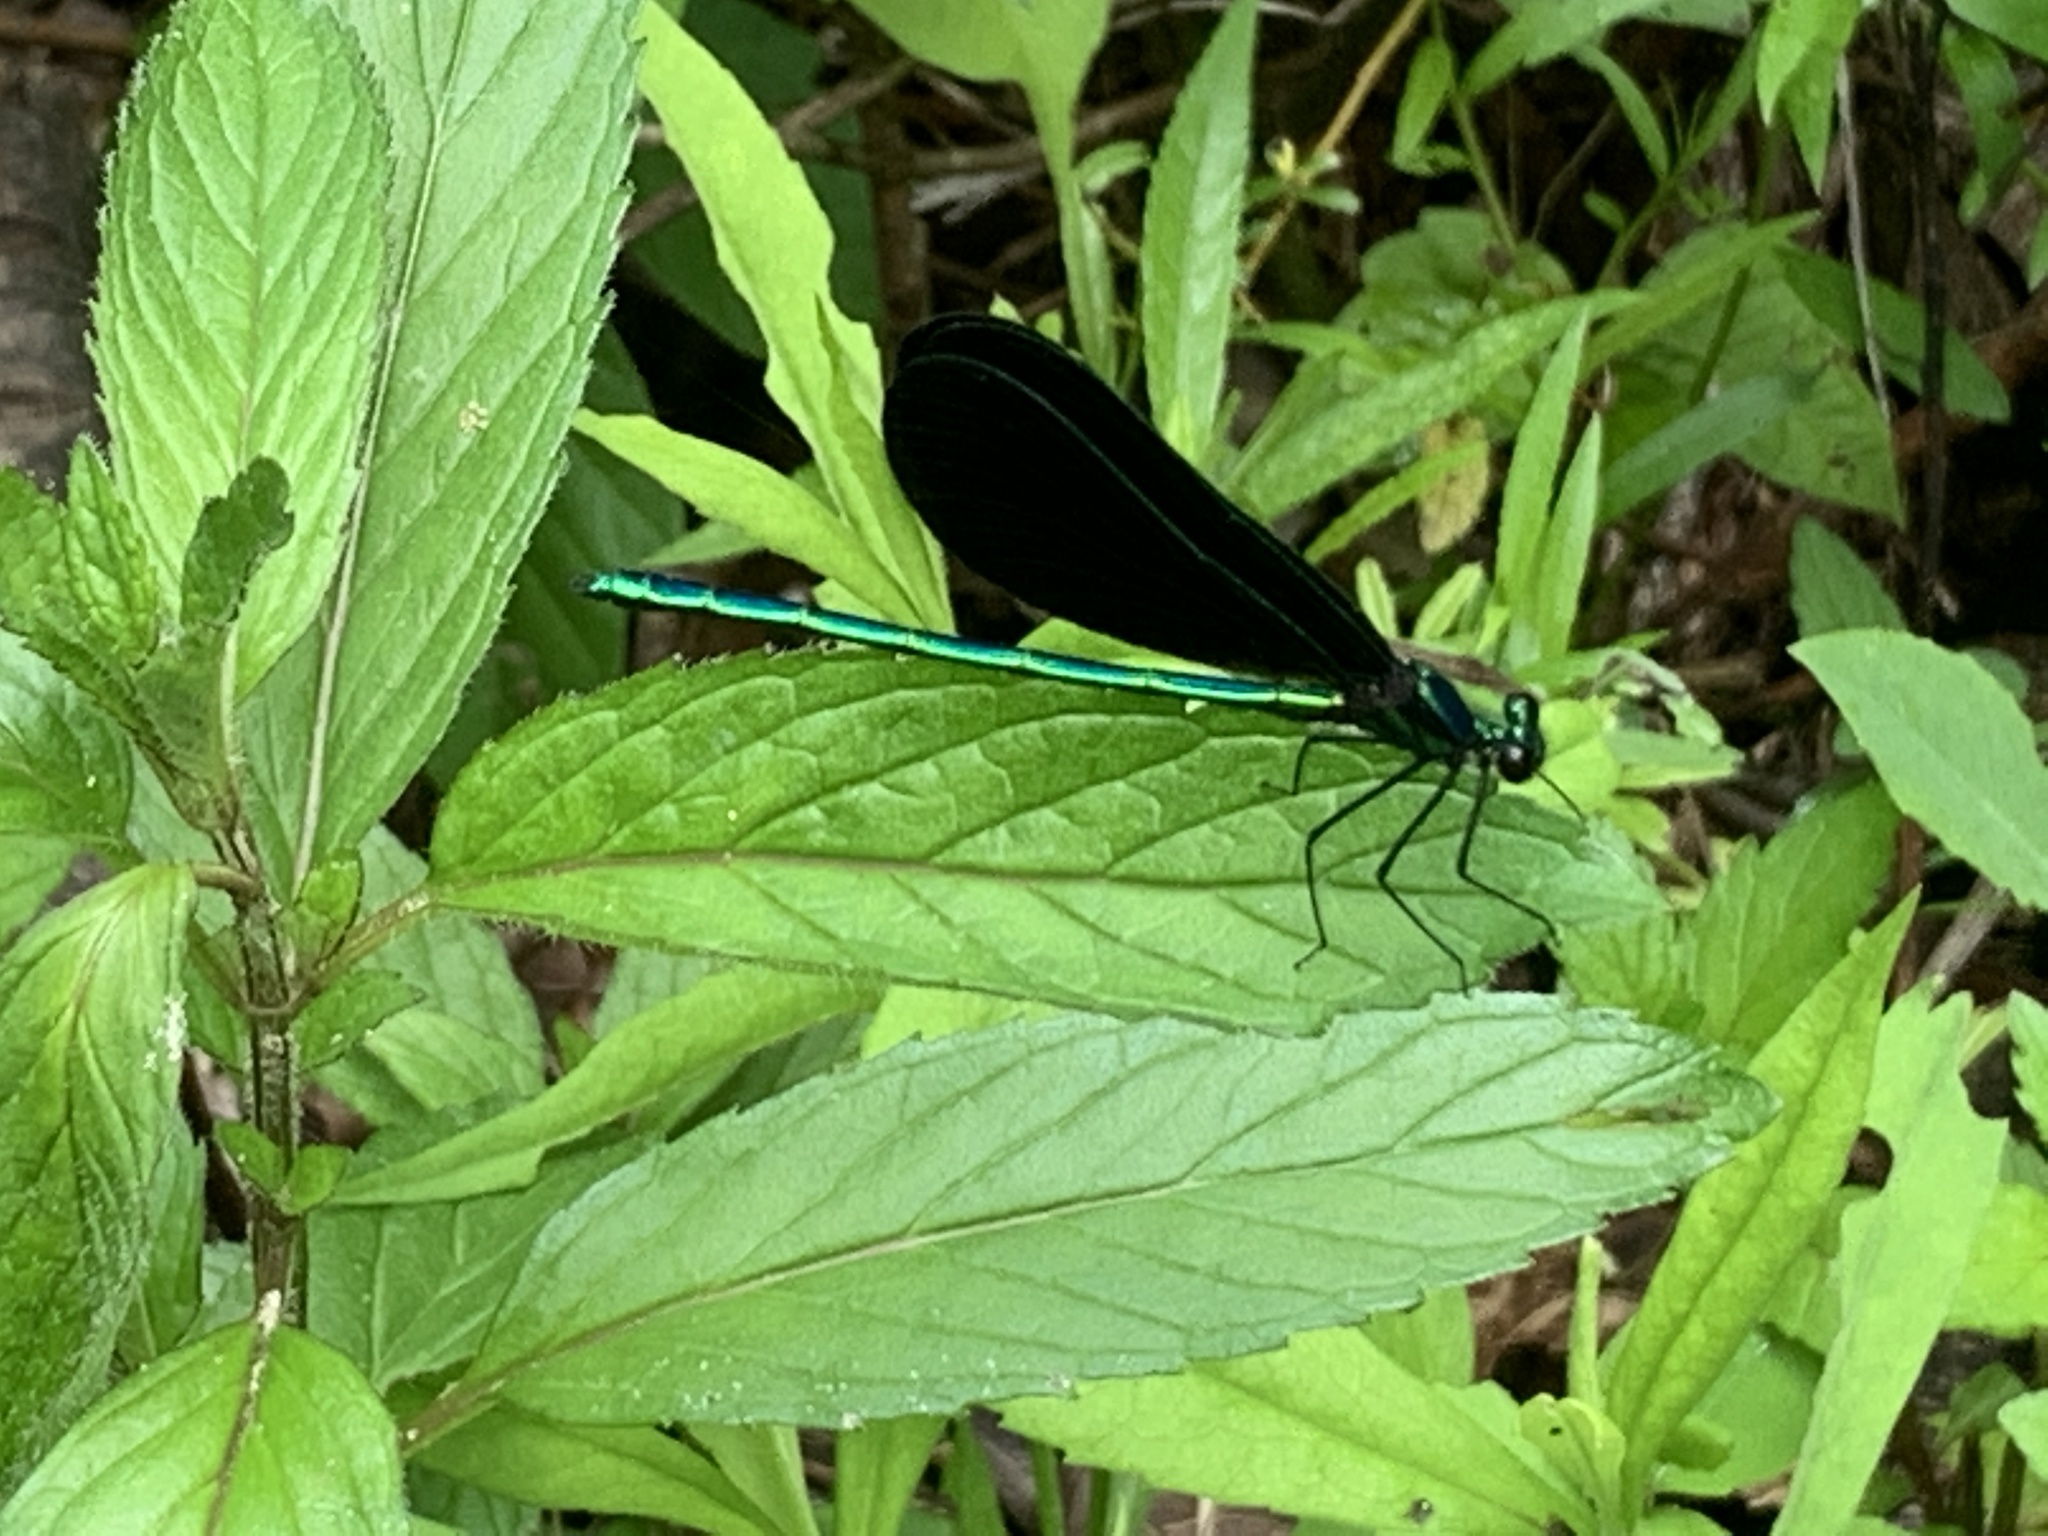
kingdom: Animalia
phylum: Arthropoda
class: Insecta
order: Odonata
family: Calopterygidae
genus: Calopteryx
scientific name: Calopteryx maculata
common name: Ebony jewelwing
